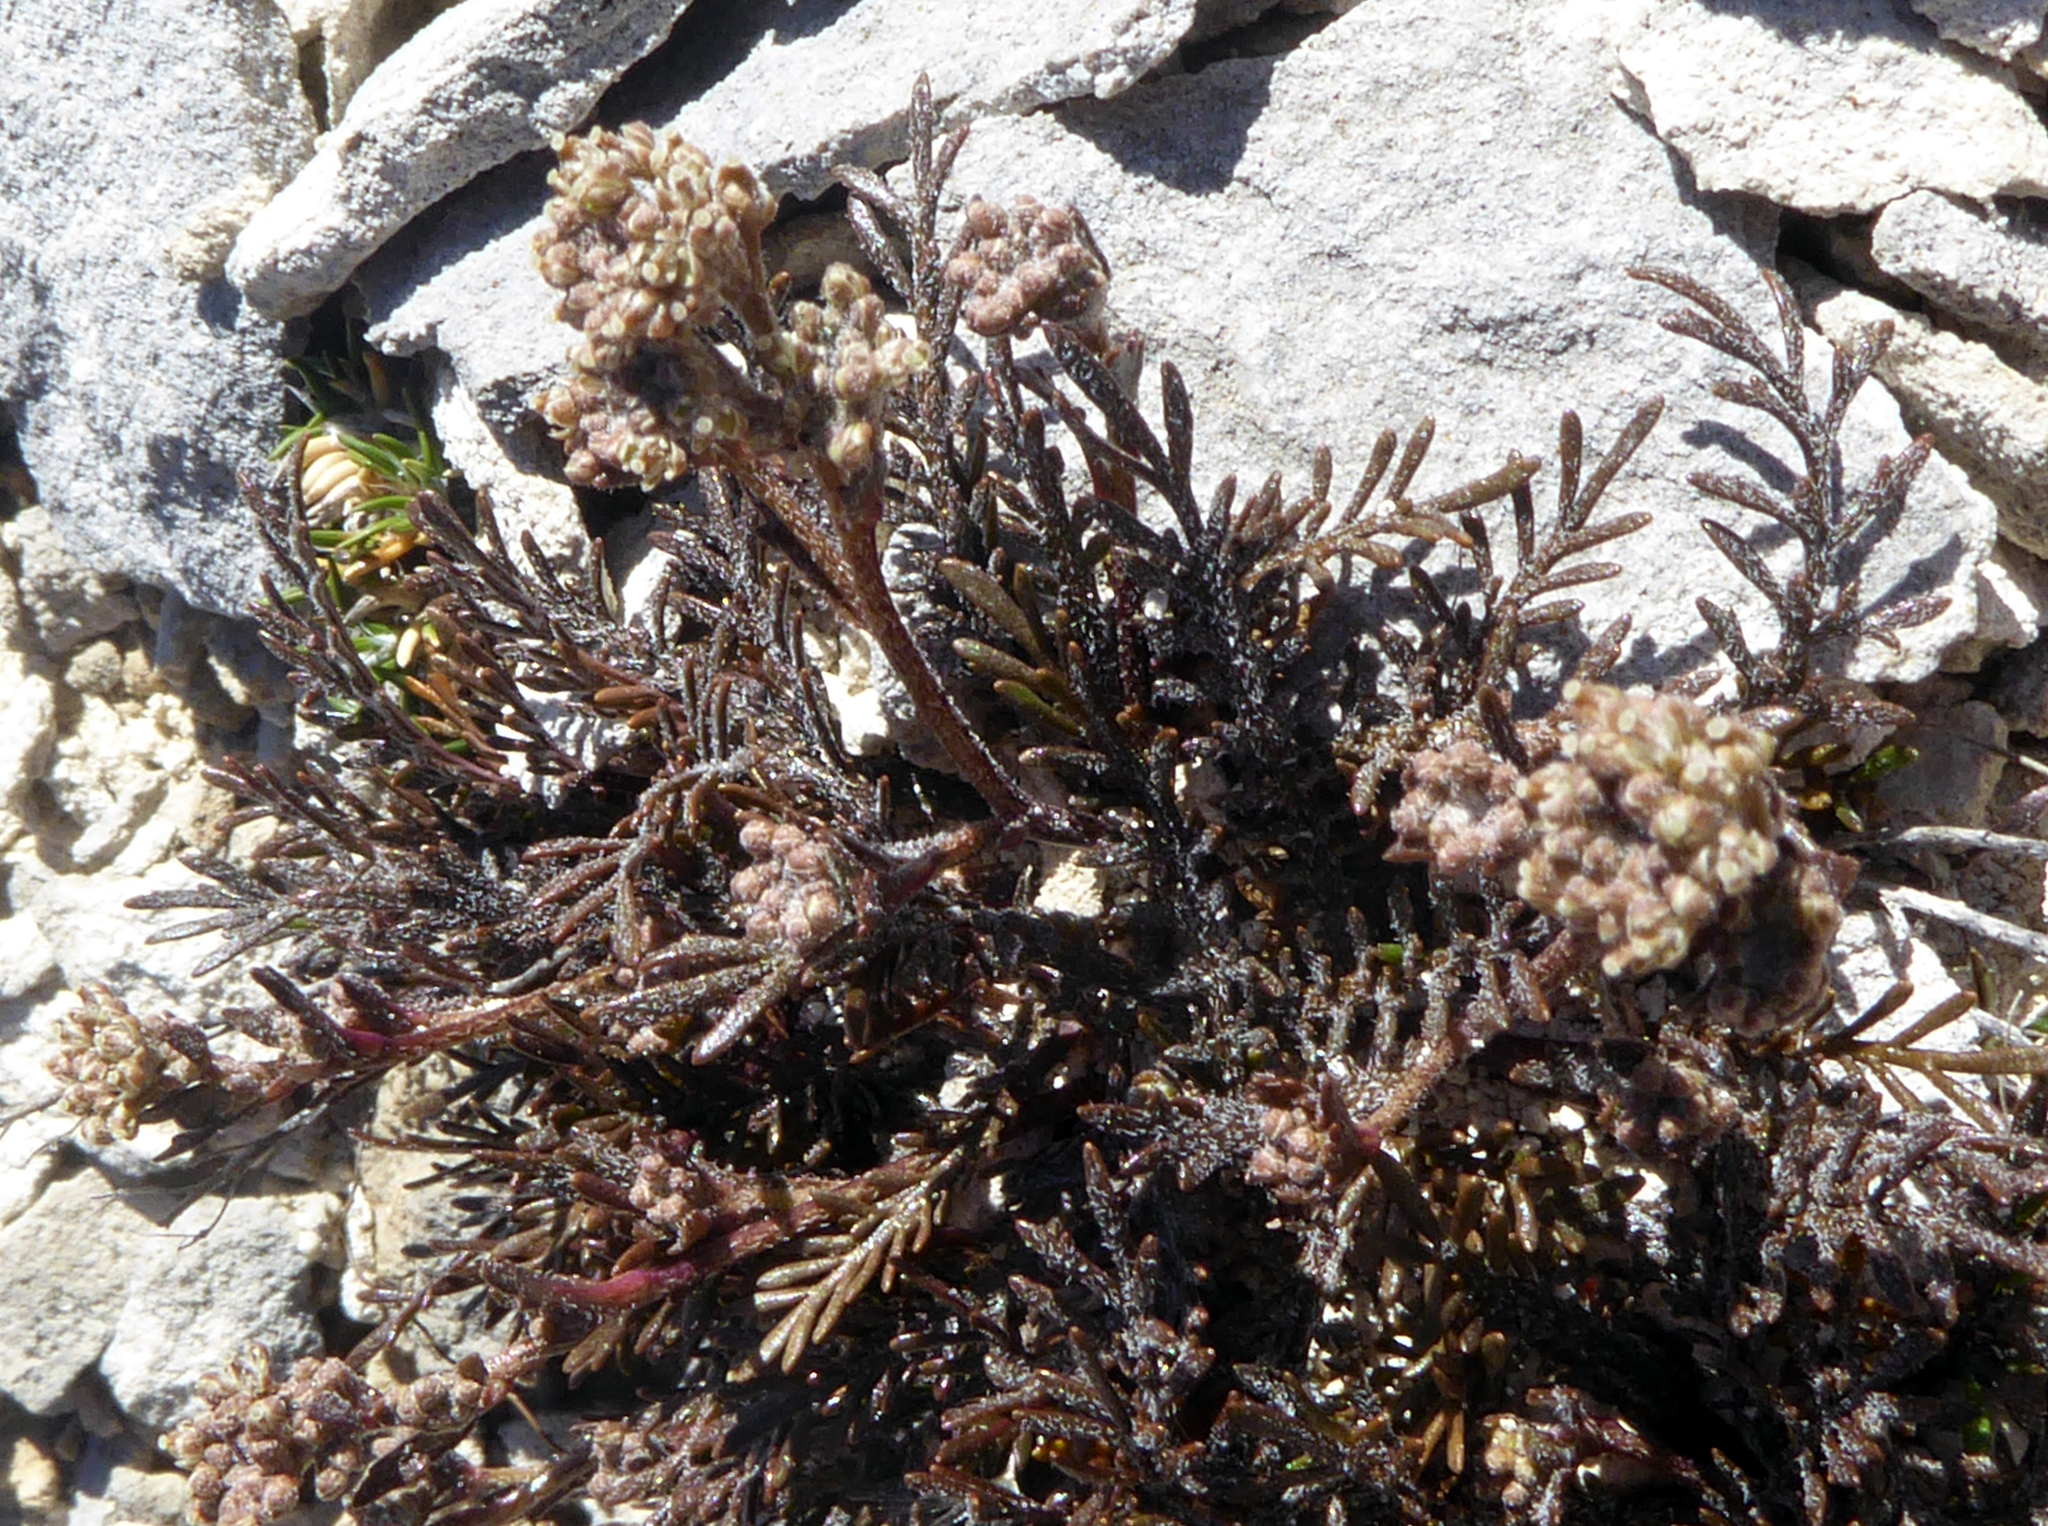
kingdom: Plantae
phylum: Tracheophyta
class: Magnoliopsida
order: Brassicales
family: Brassicaceae
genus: Lepidium
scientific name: Lepidium sisymbrioides
